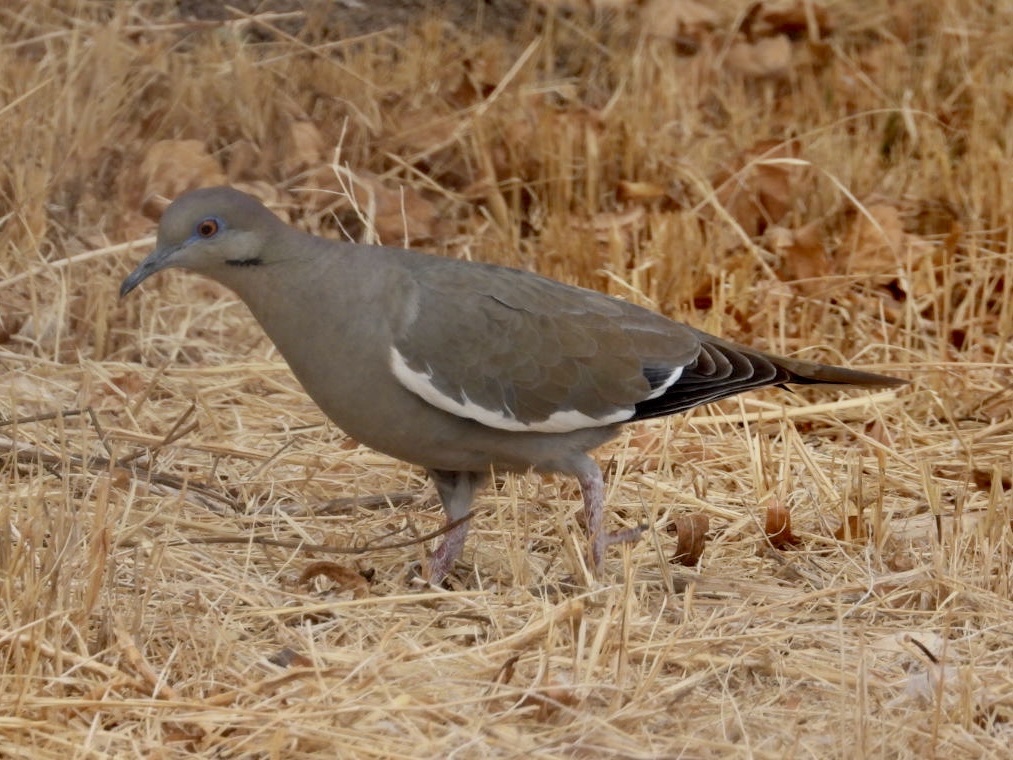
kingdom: Animalia
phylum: Chordata
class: Aves
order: Columbiformes
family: Columbidae
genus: Zenaida
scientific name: Zenaida asiatica
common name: White-winged dove
